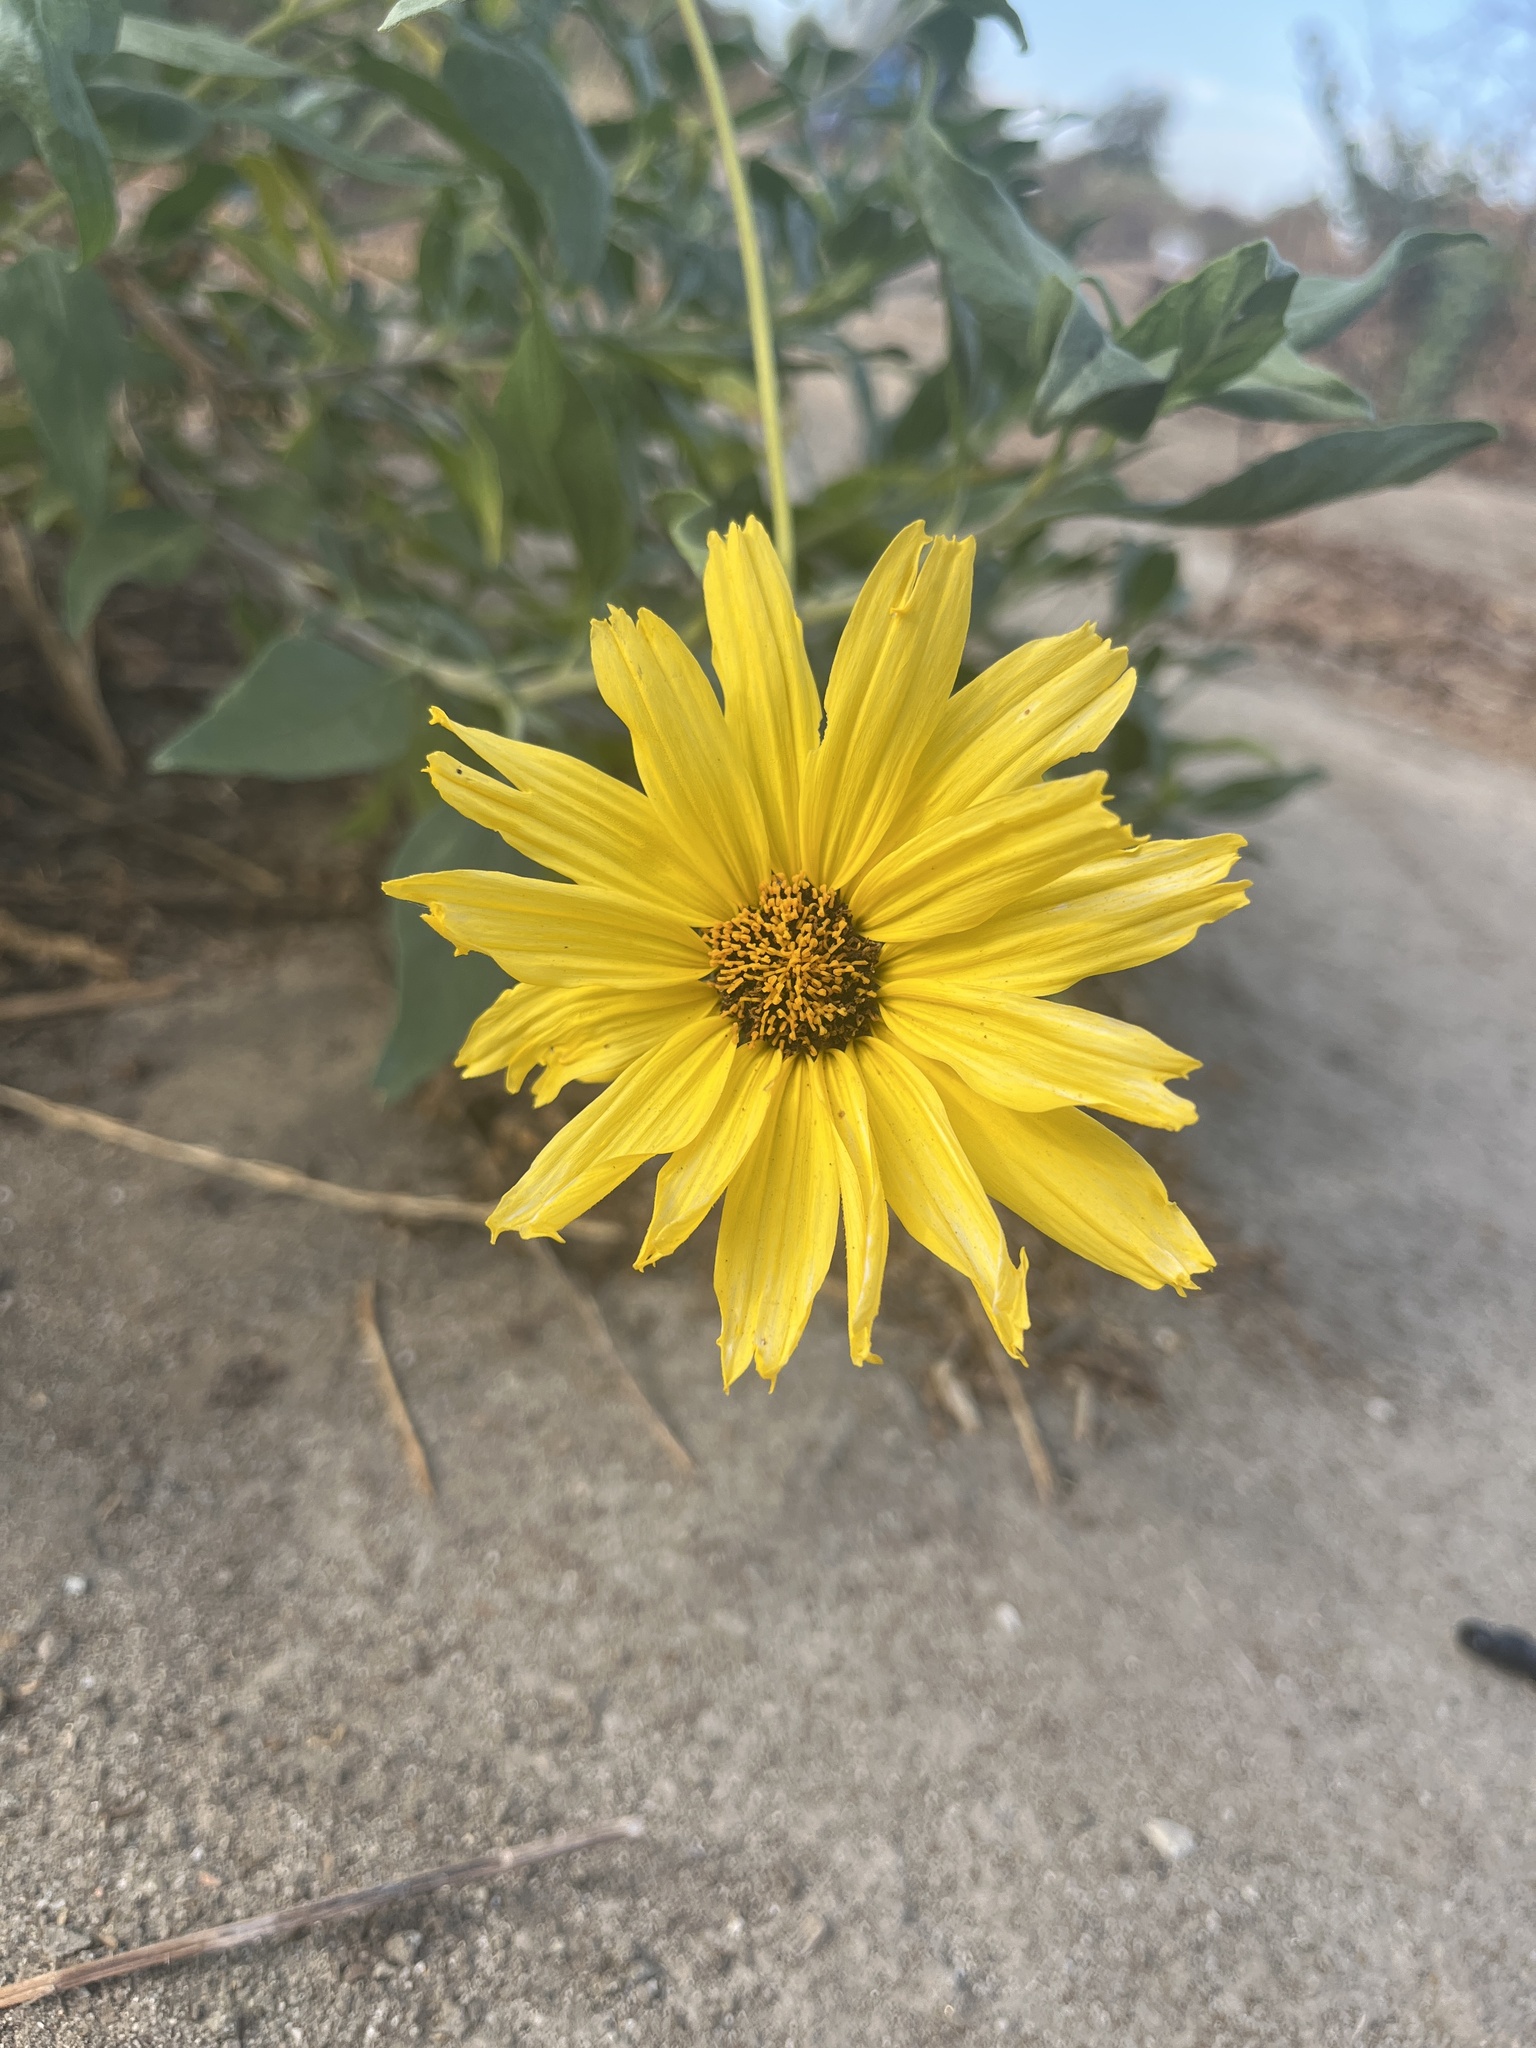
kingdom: Plantae
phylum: Tracheophyta
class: Magnoliopsida
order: Asterales
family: Asteraceae
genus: Encelia
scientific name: Encelia californica
